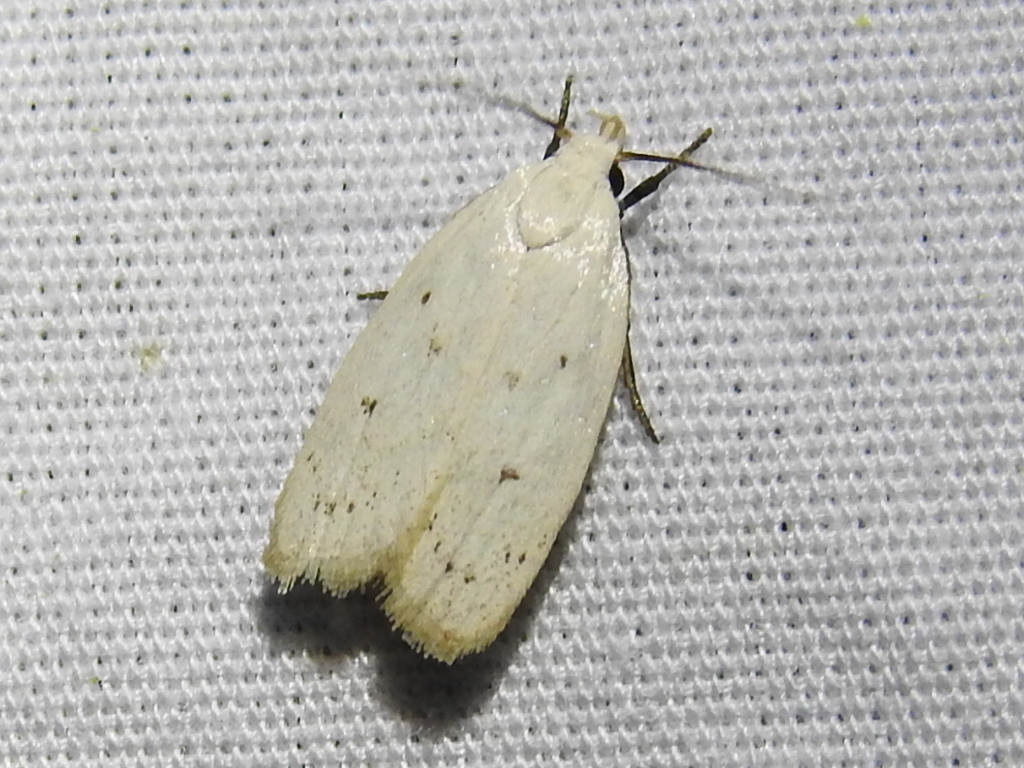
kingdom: Animalia
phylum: Arthropoda
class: Insecta
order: Lepidoptera
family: Oecophoridae
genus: Inga
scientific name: Inga cretacea
